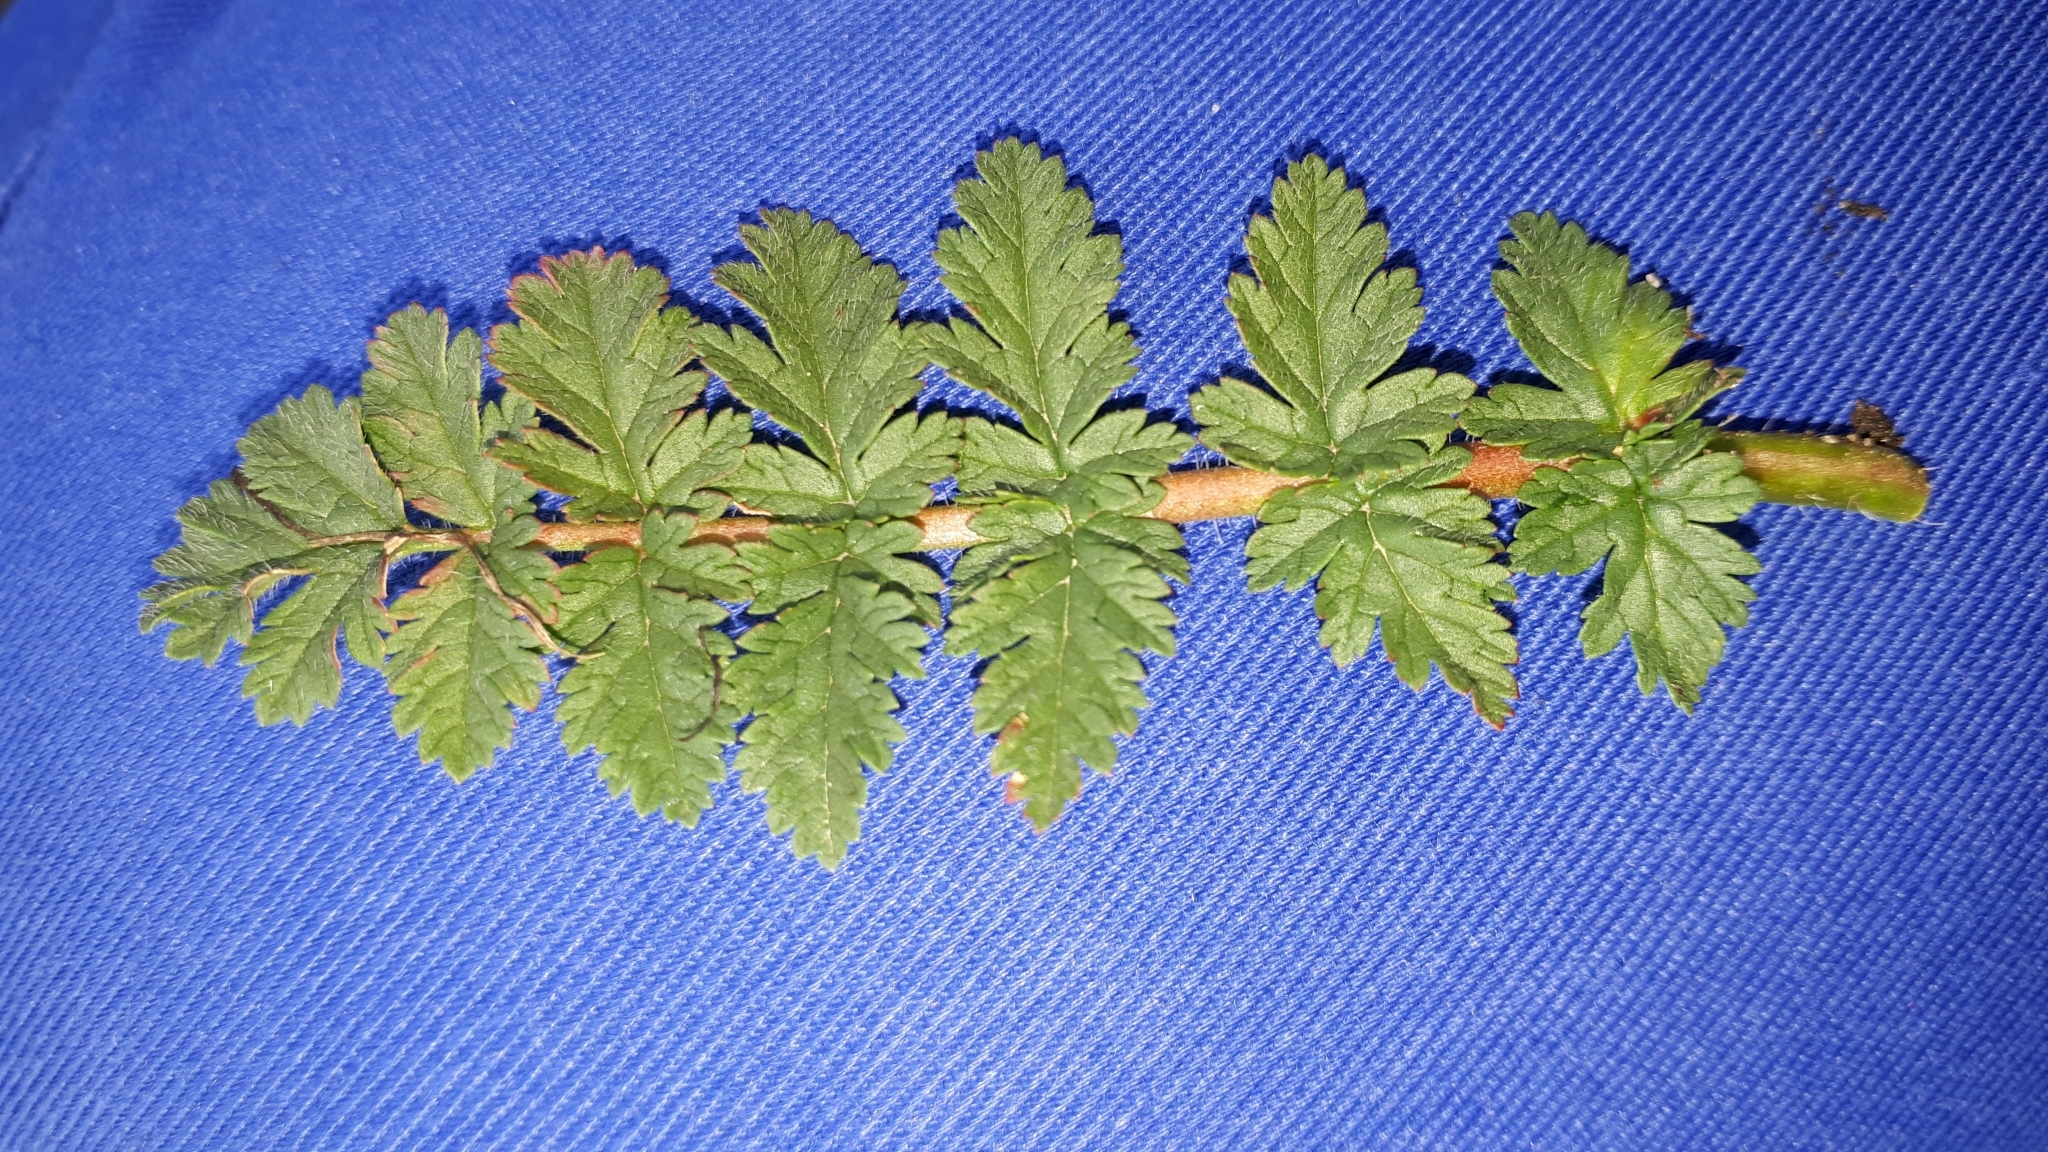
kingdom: Plantae
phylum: Tracheophyta
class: Magnoliopsida
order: Geraniales
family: Geraniaceae
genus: Erodium
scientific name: Erodium cicutarium
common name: Common stork's-bill
